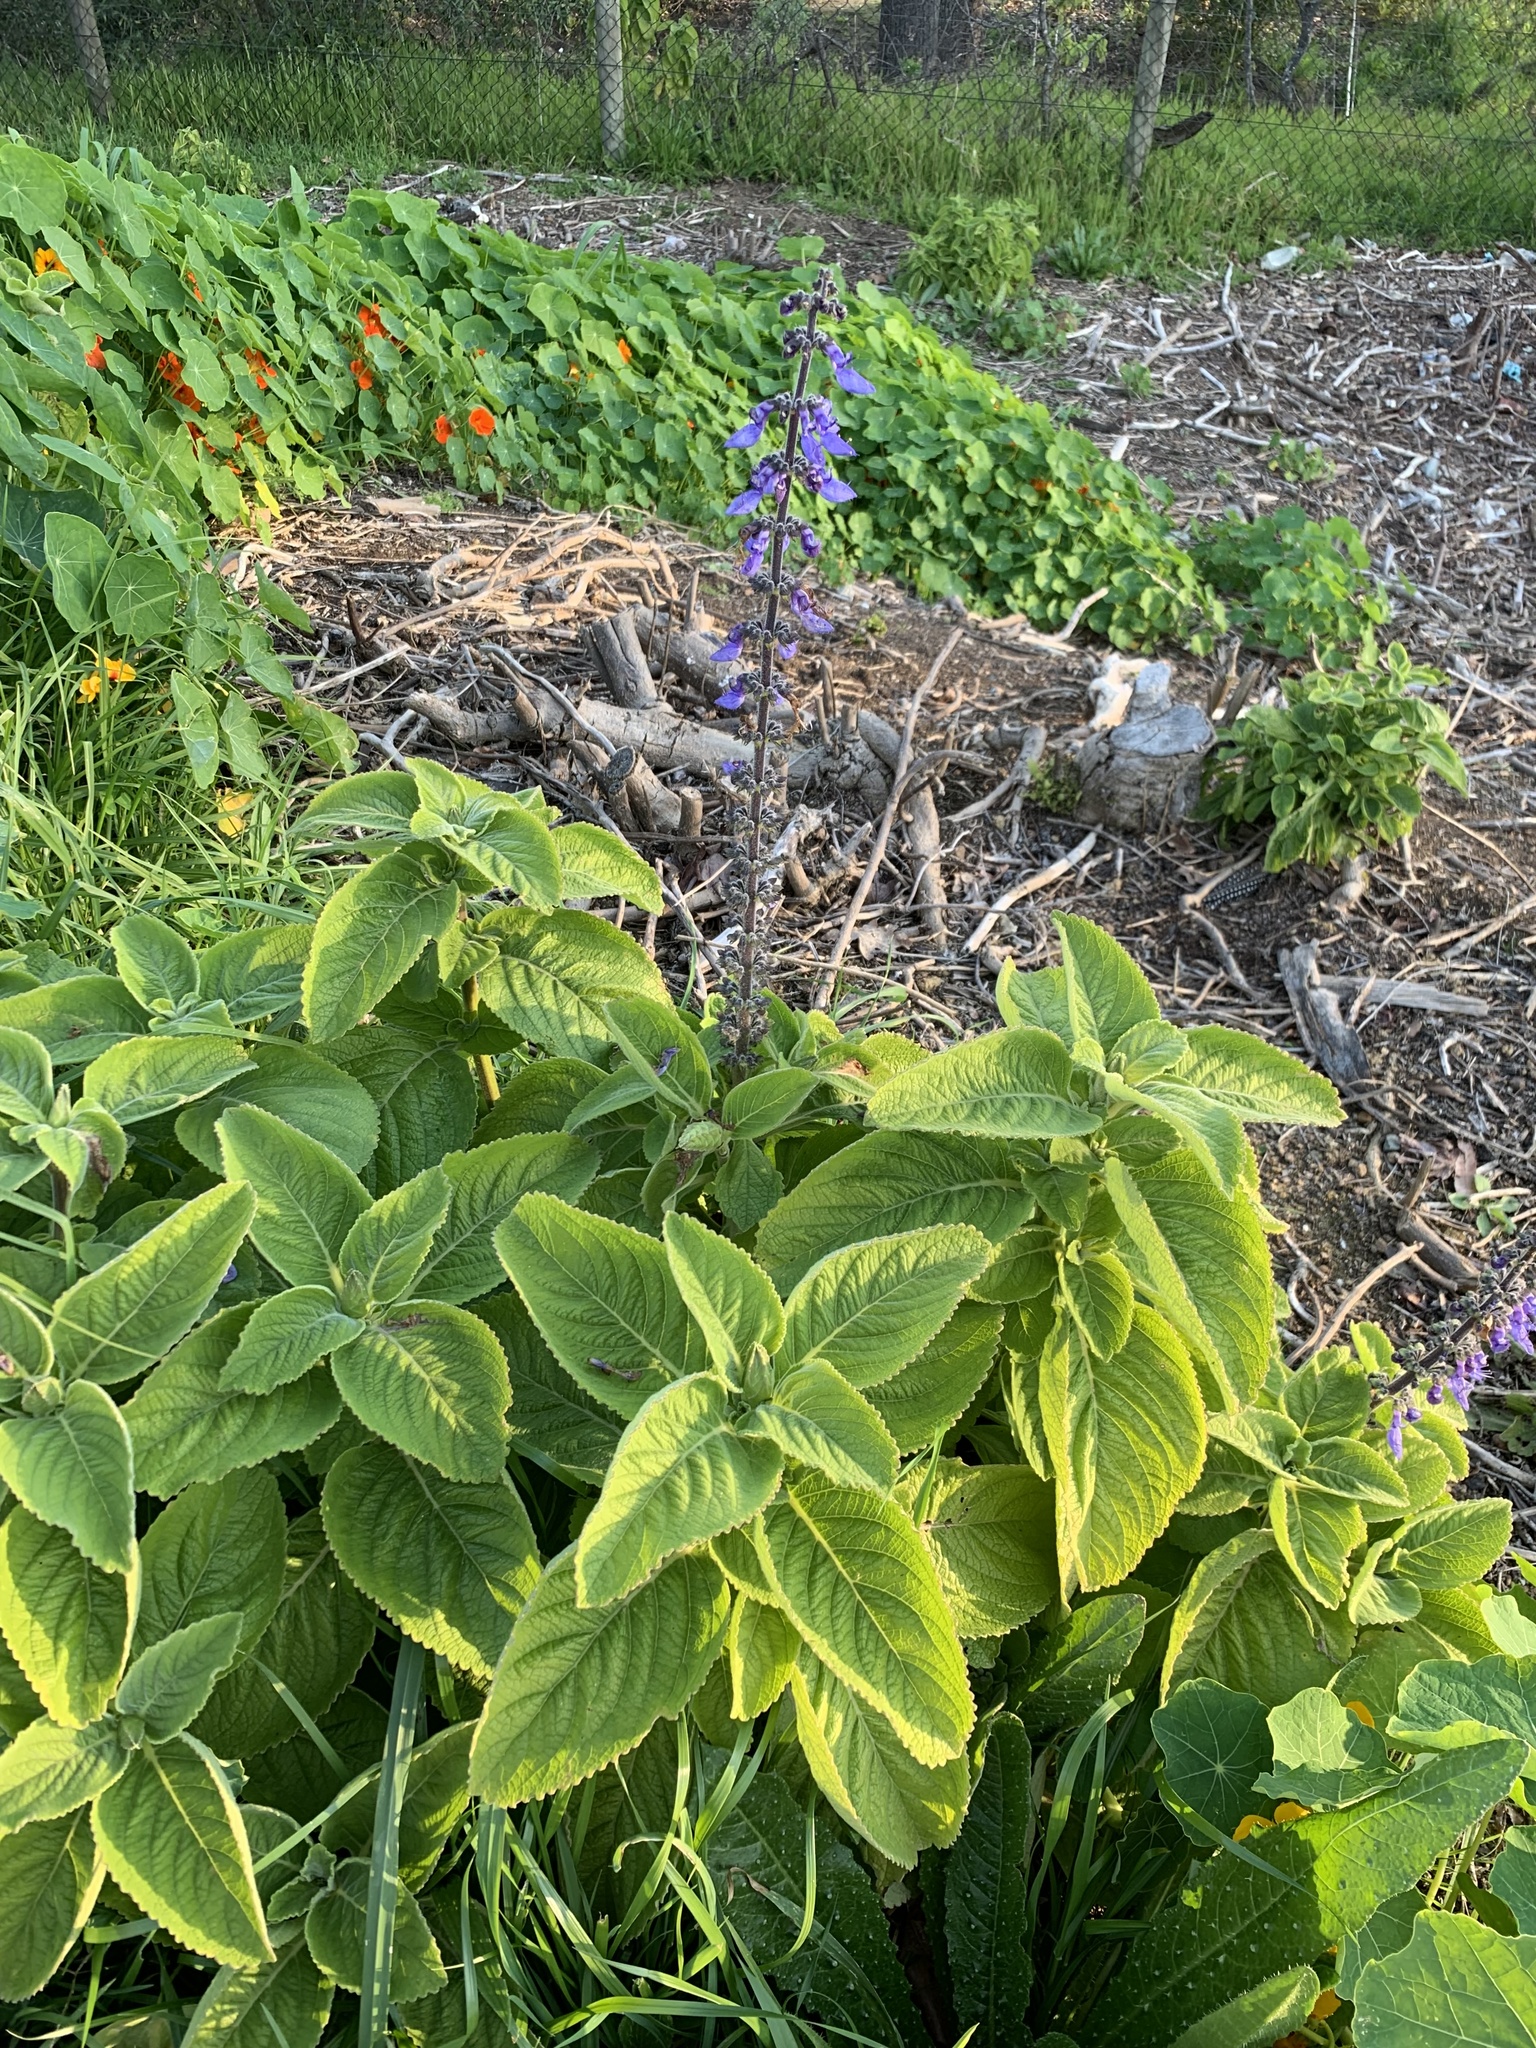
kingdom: Plantae
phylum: Tracheophyta
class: Magnoliopsida
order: Lamiales
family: Lamiaceae
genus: Coleus
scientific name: Coleus barbatus
